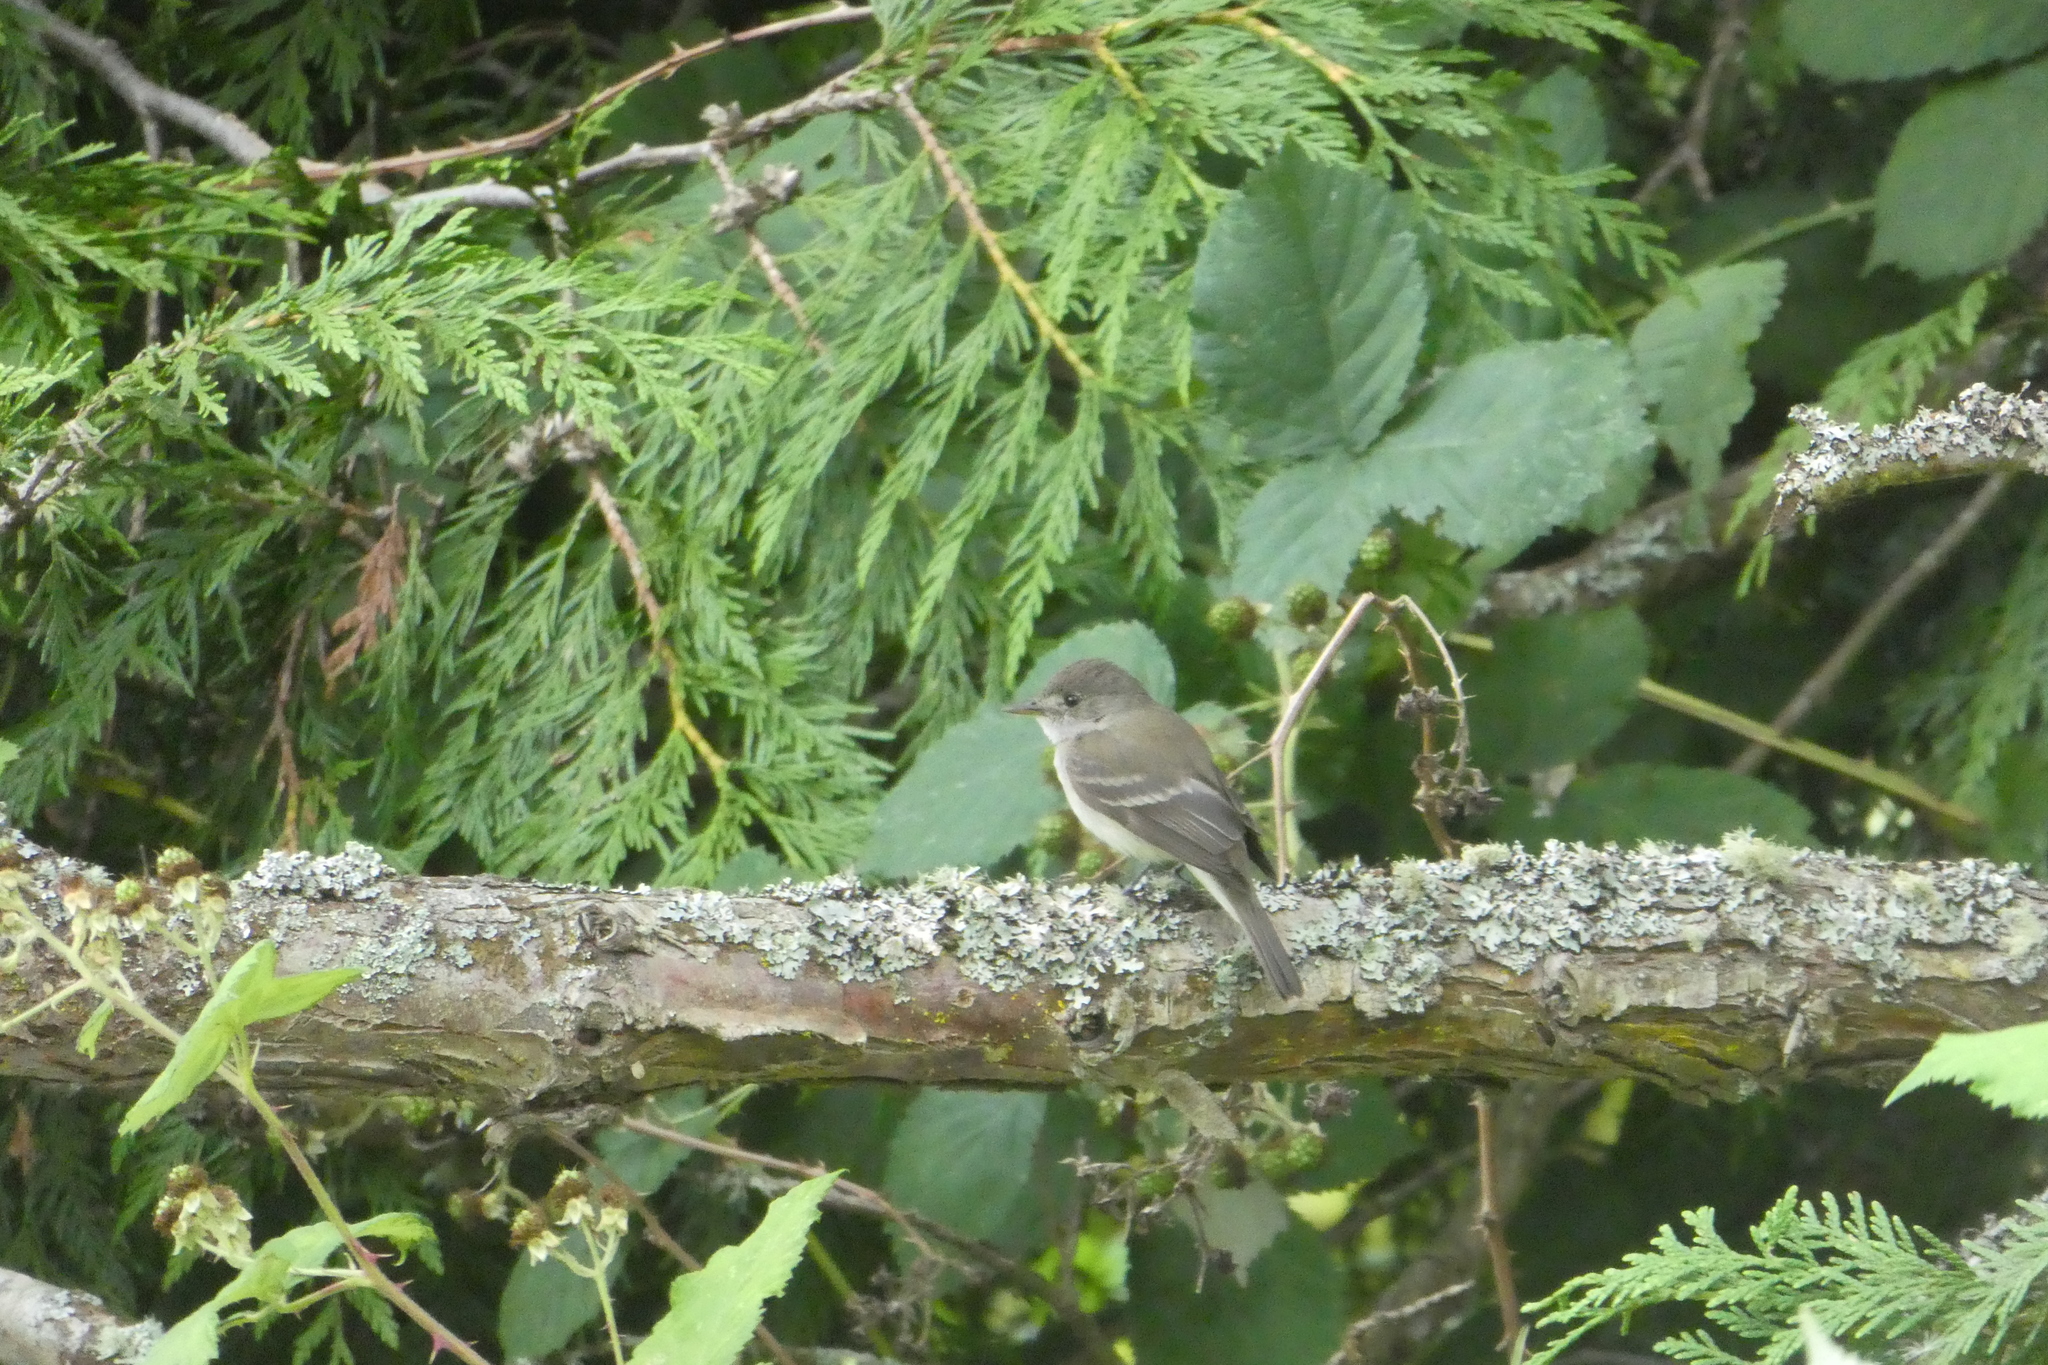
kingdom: Animalia
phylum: Chordata
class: Aves
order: Passeriformes
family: Tyrannidae
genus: Empidonax
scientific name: Empidonax
